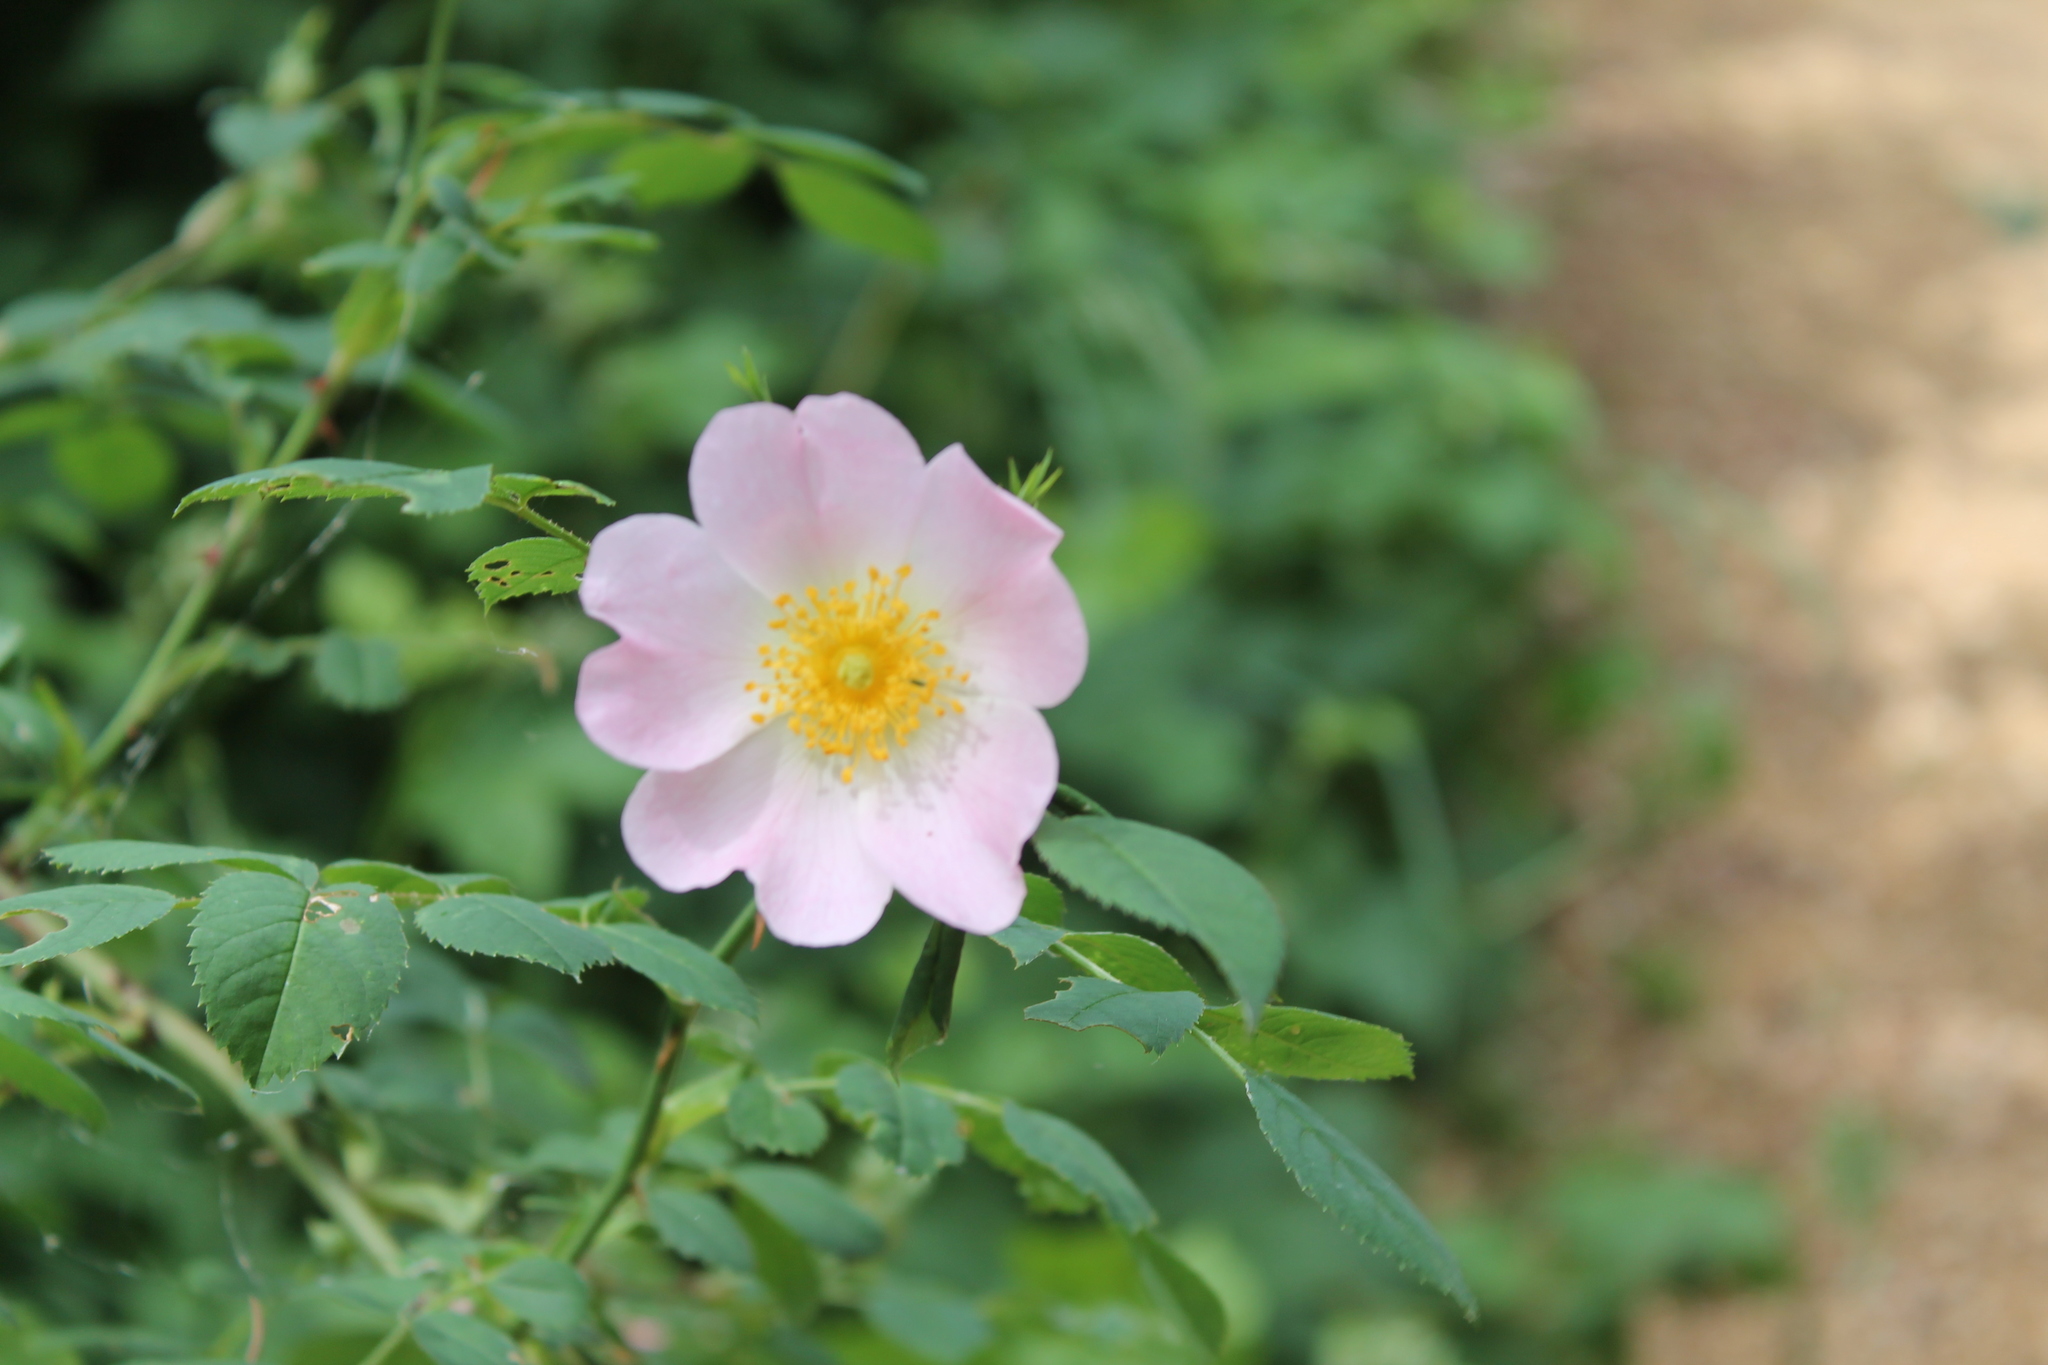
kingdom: Plantae
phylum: Tracheophyta
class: Magnoliopsida
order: Rosales
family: Rosaceae
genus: Rosa
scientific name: Rosa canina
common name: Dog rose
